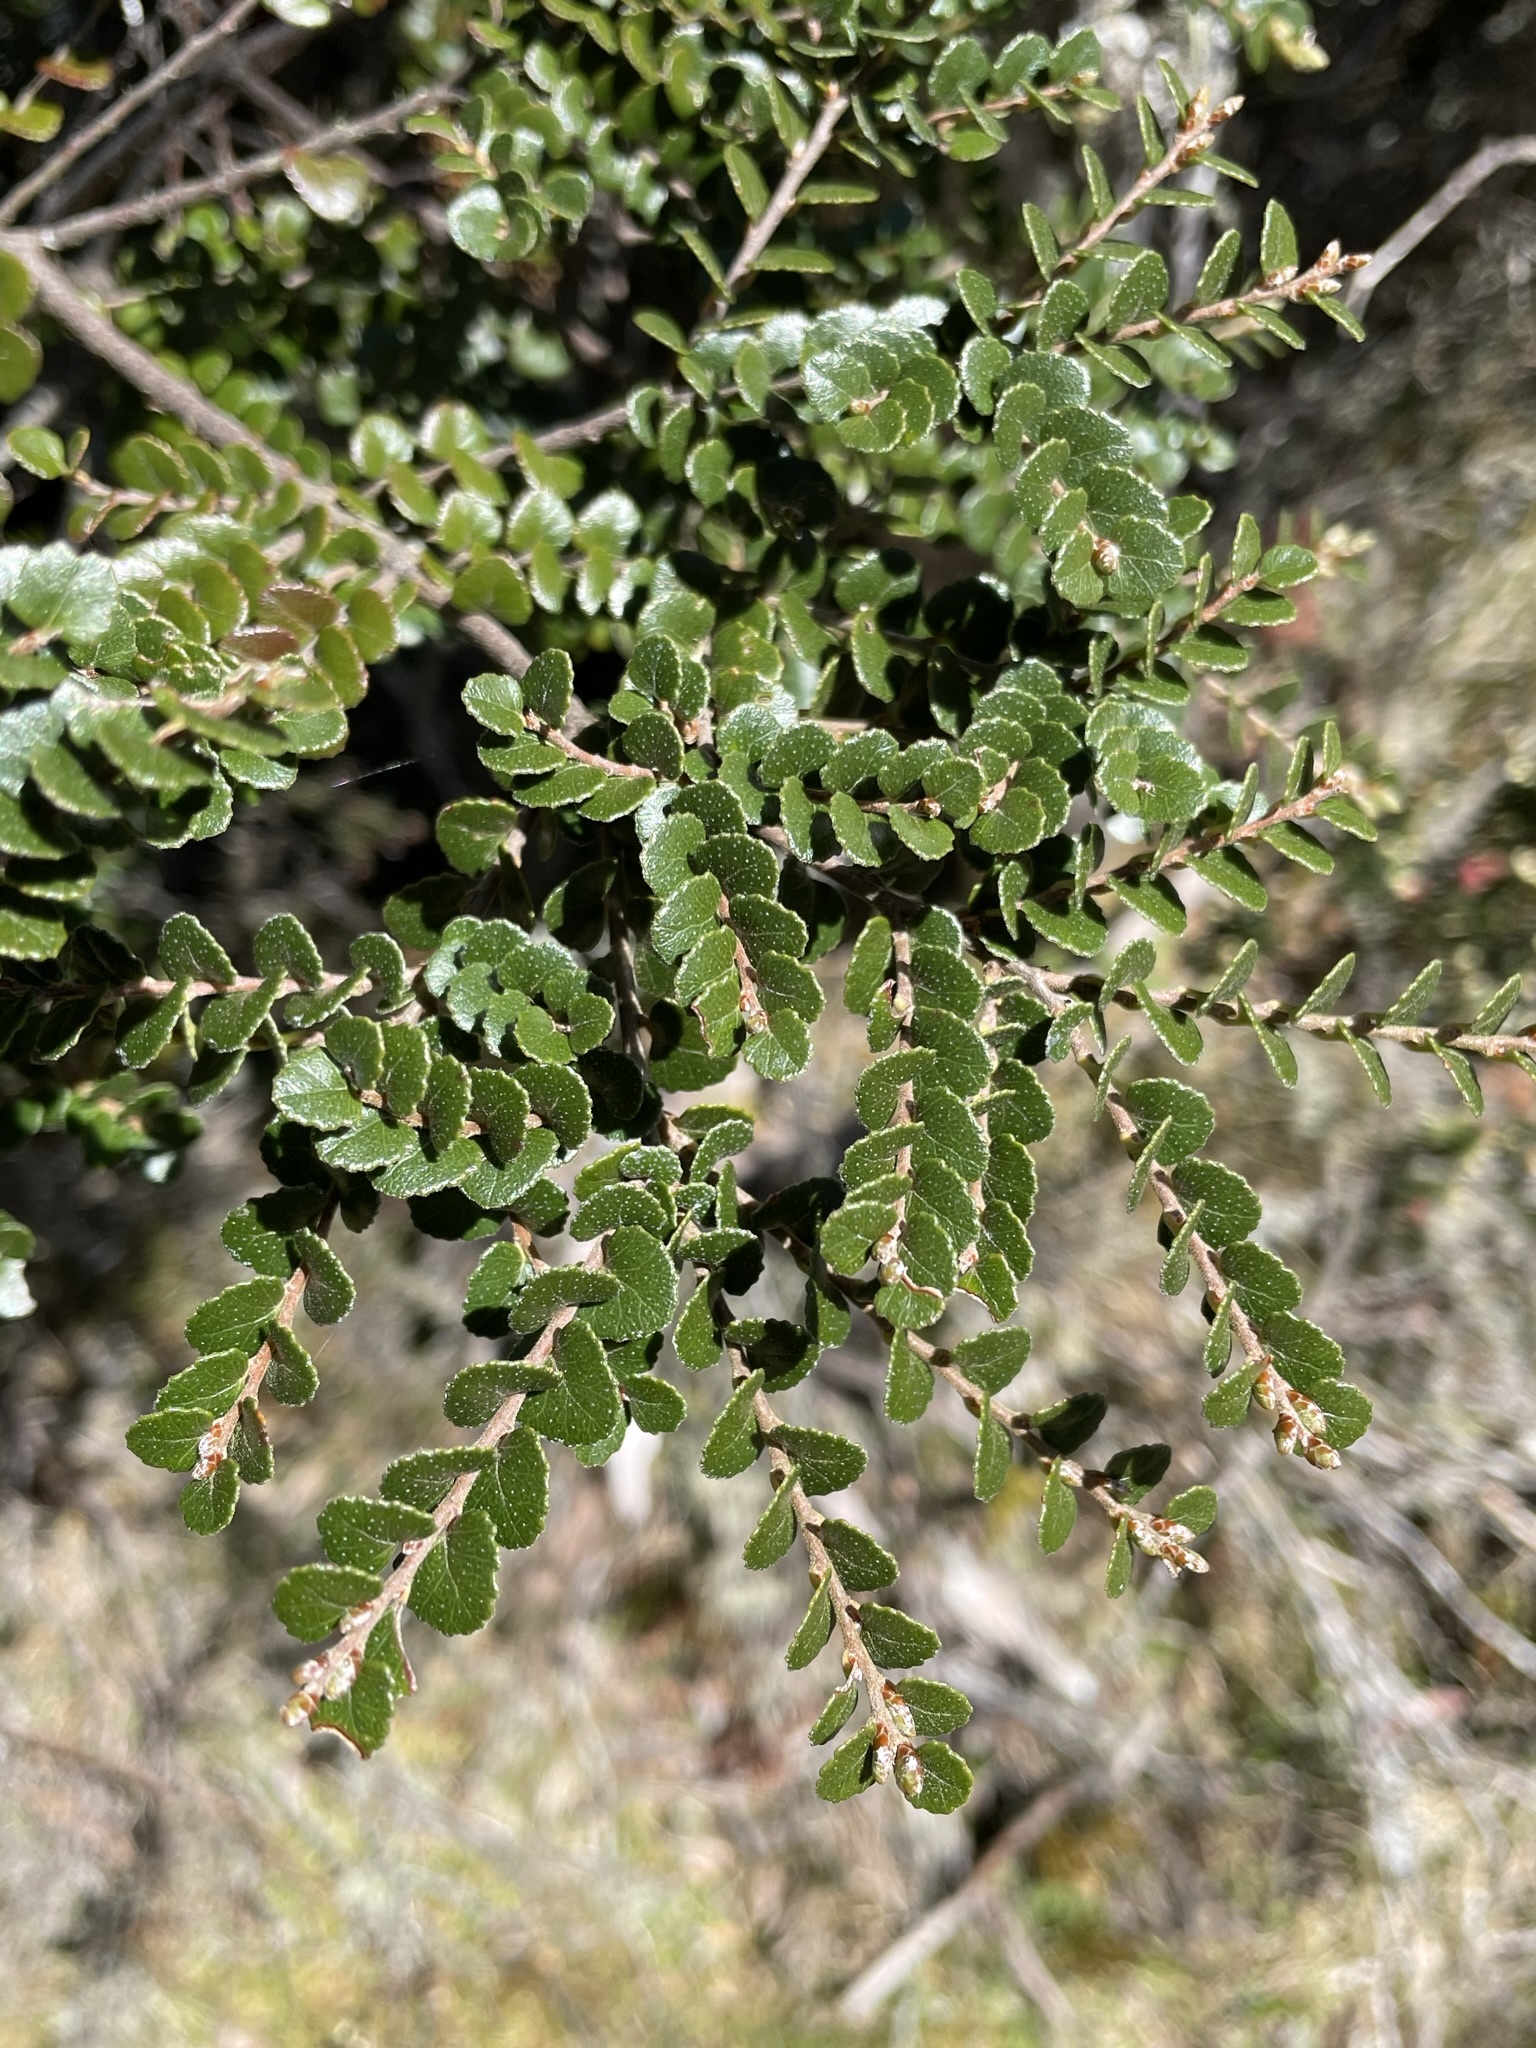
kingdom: Plantae
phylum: Tracheophyta
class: Magnoliopsida
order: Fagales
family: Nothofagaceae
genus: Nothofagus
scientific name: Nothofagus cunninghamii
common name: Myrtle beech
